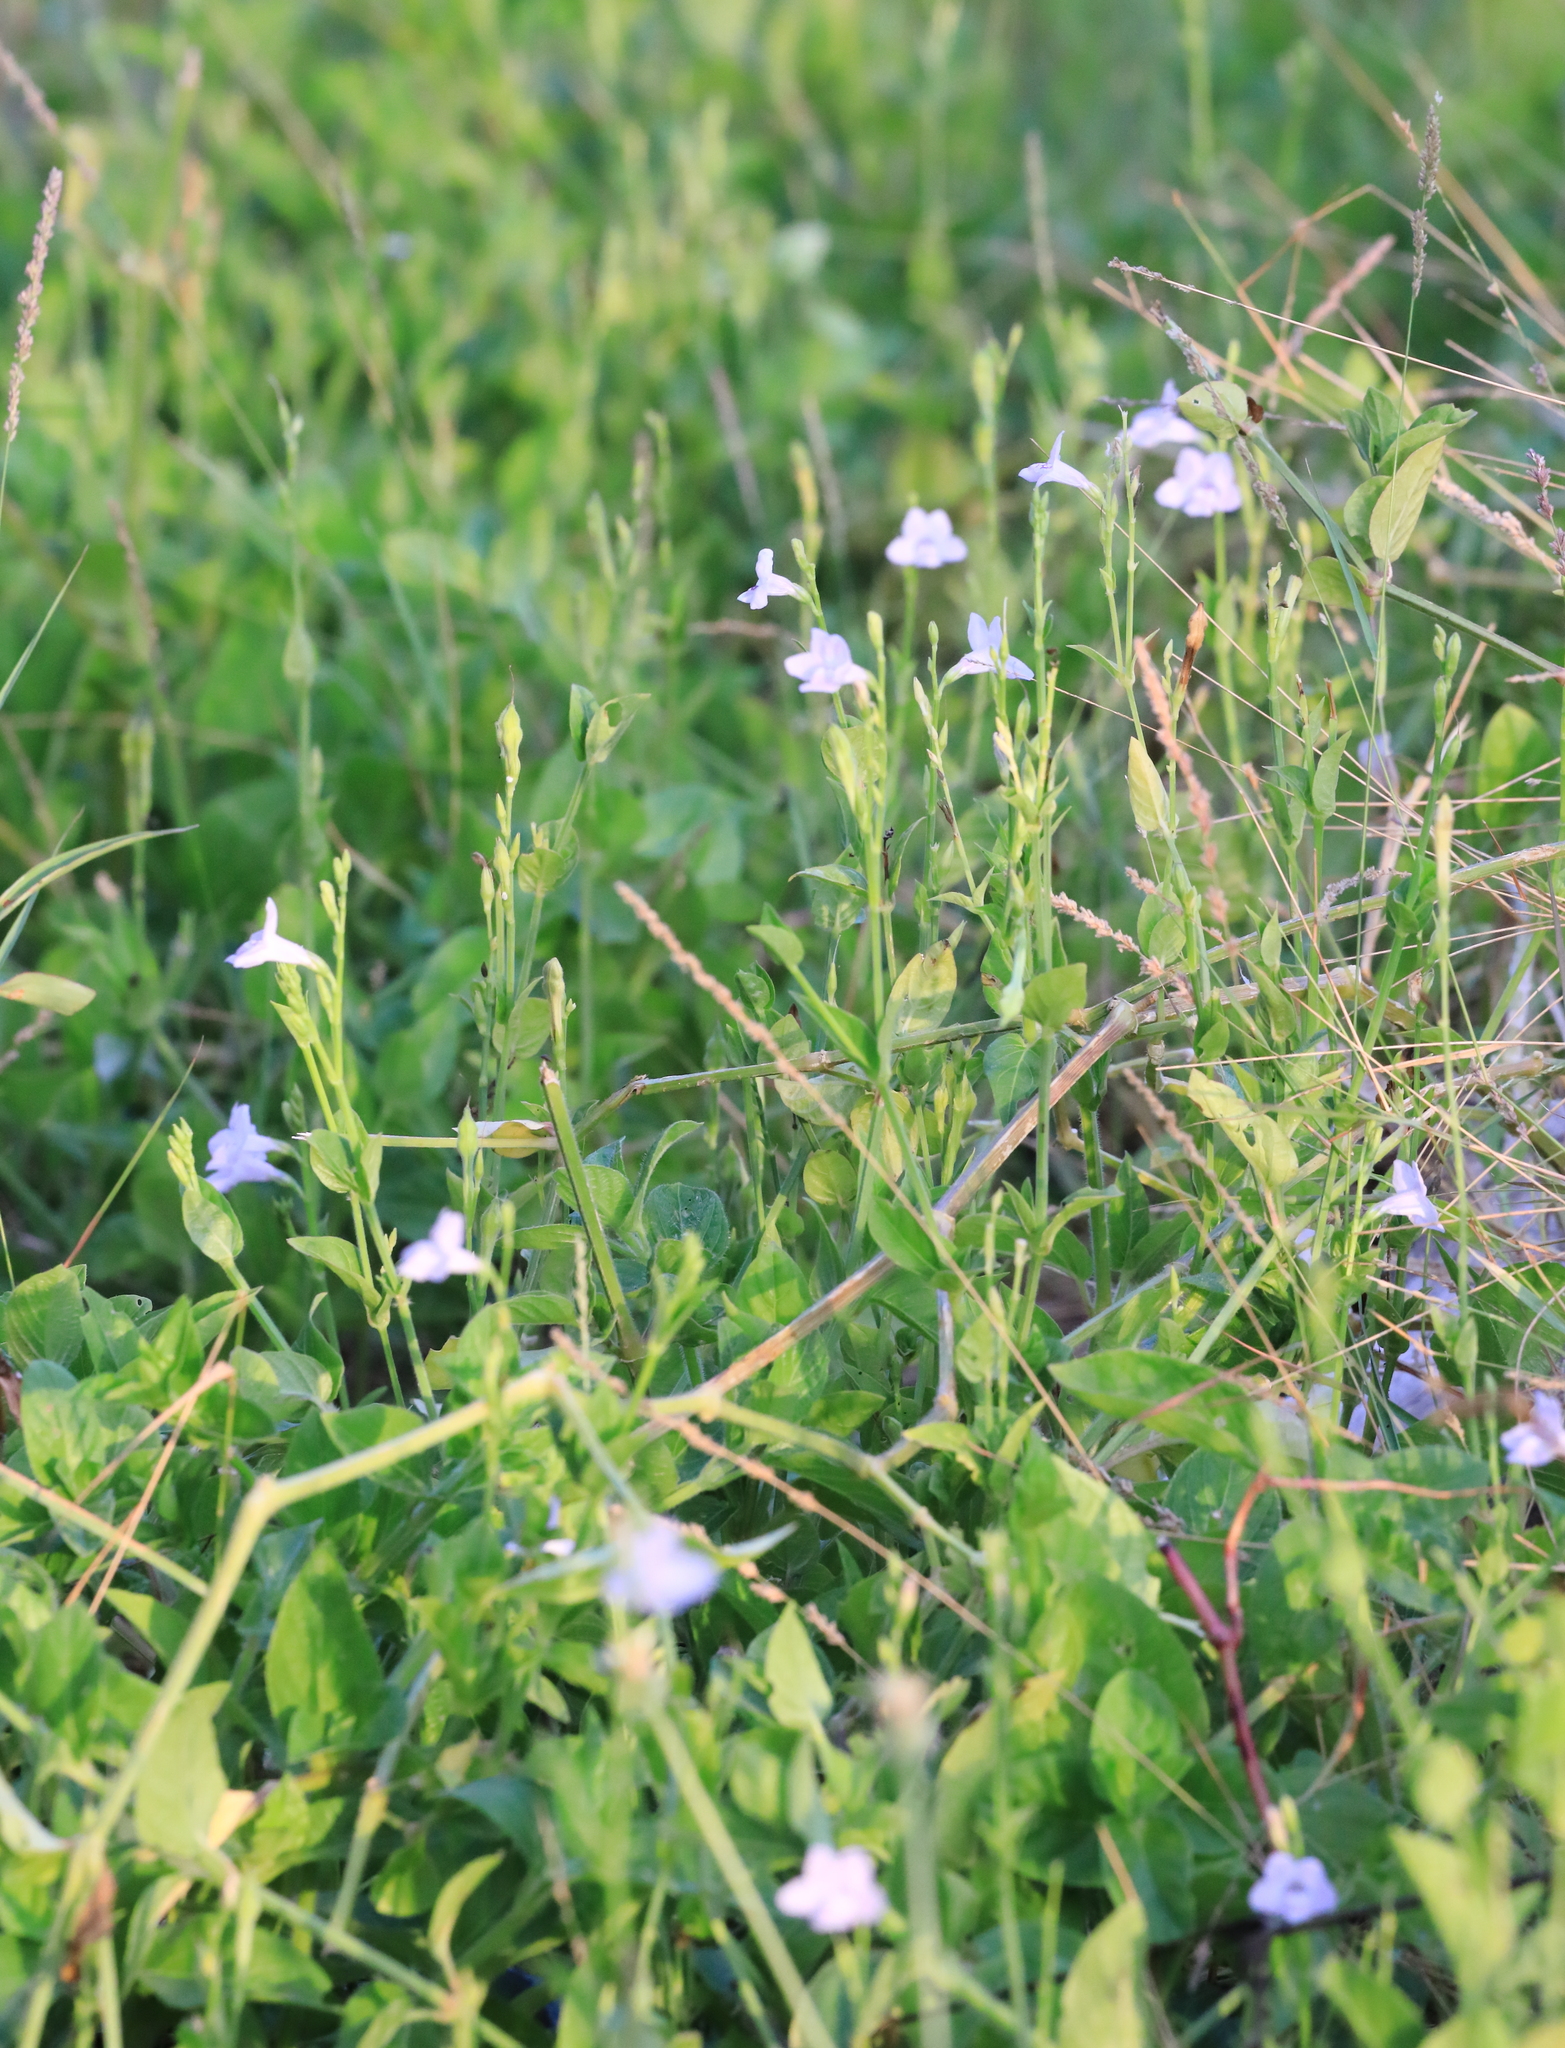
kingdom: Plantae
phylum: Tracheophyta
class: Magnoliopsida
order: Lamiales
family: Acanthaceae
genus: Asystasia
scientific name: Asystasia intrusa
